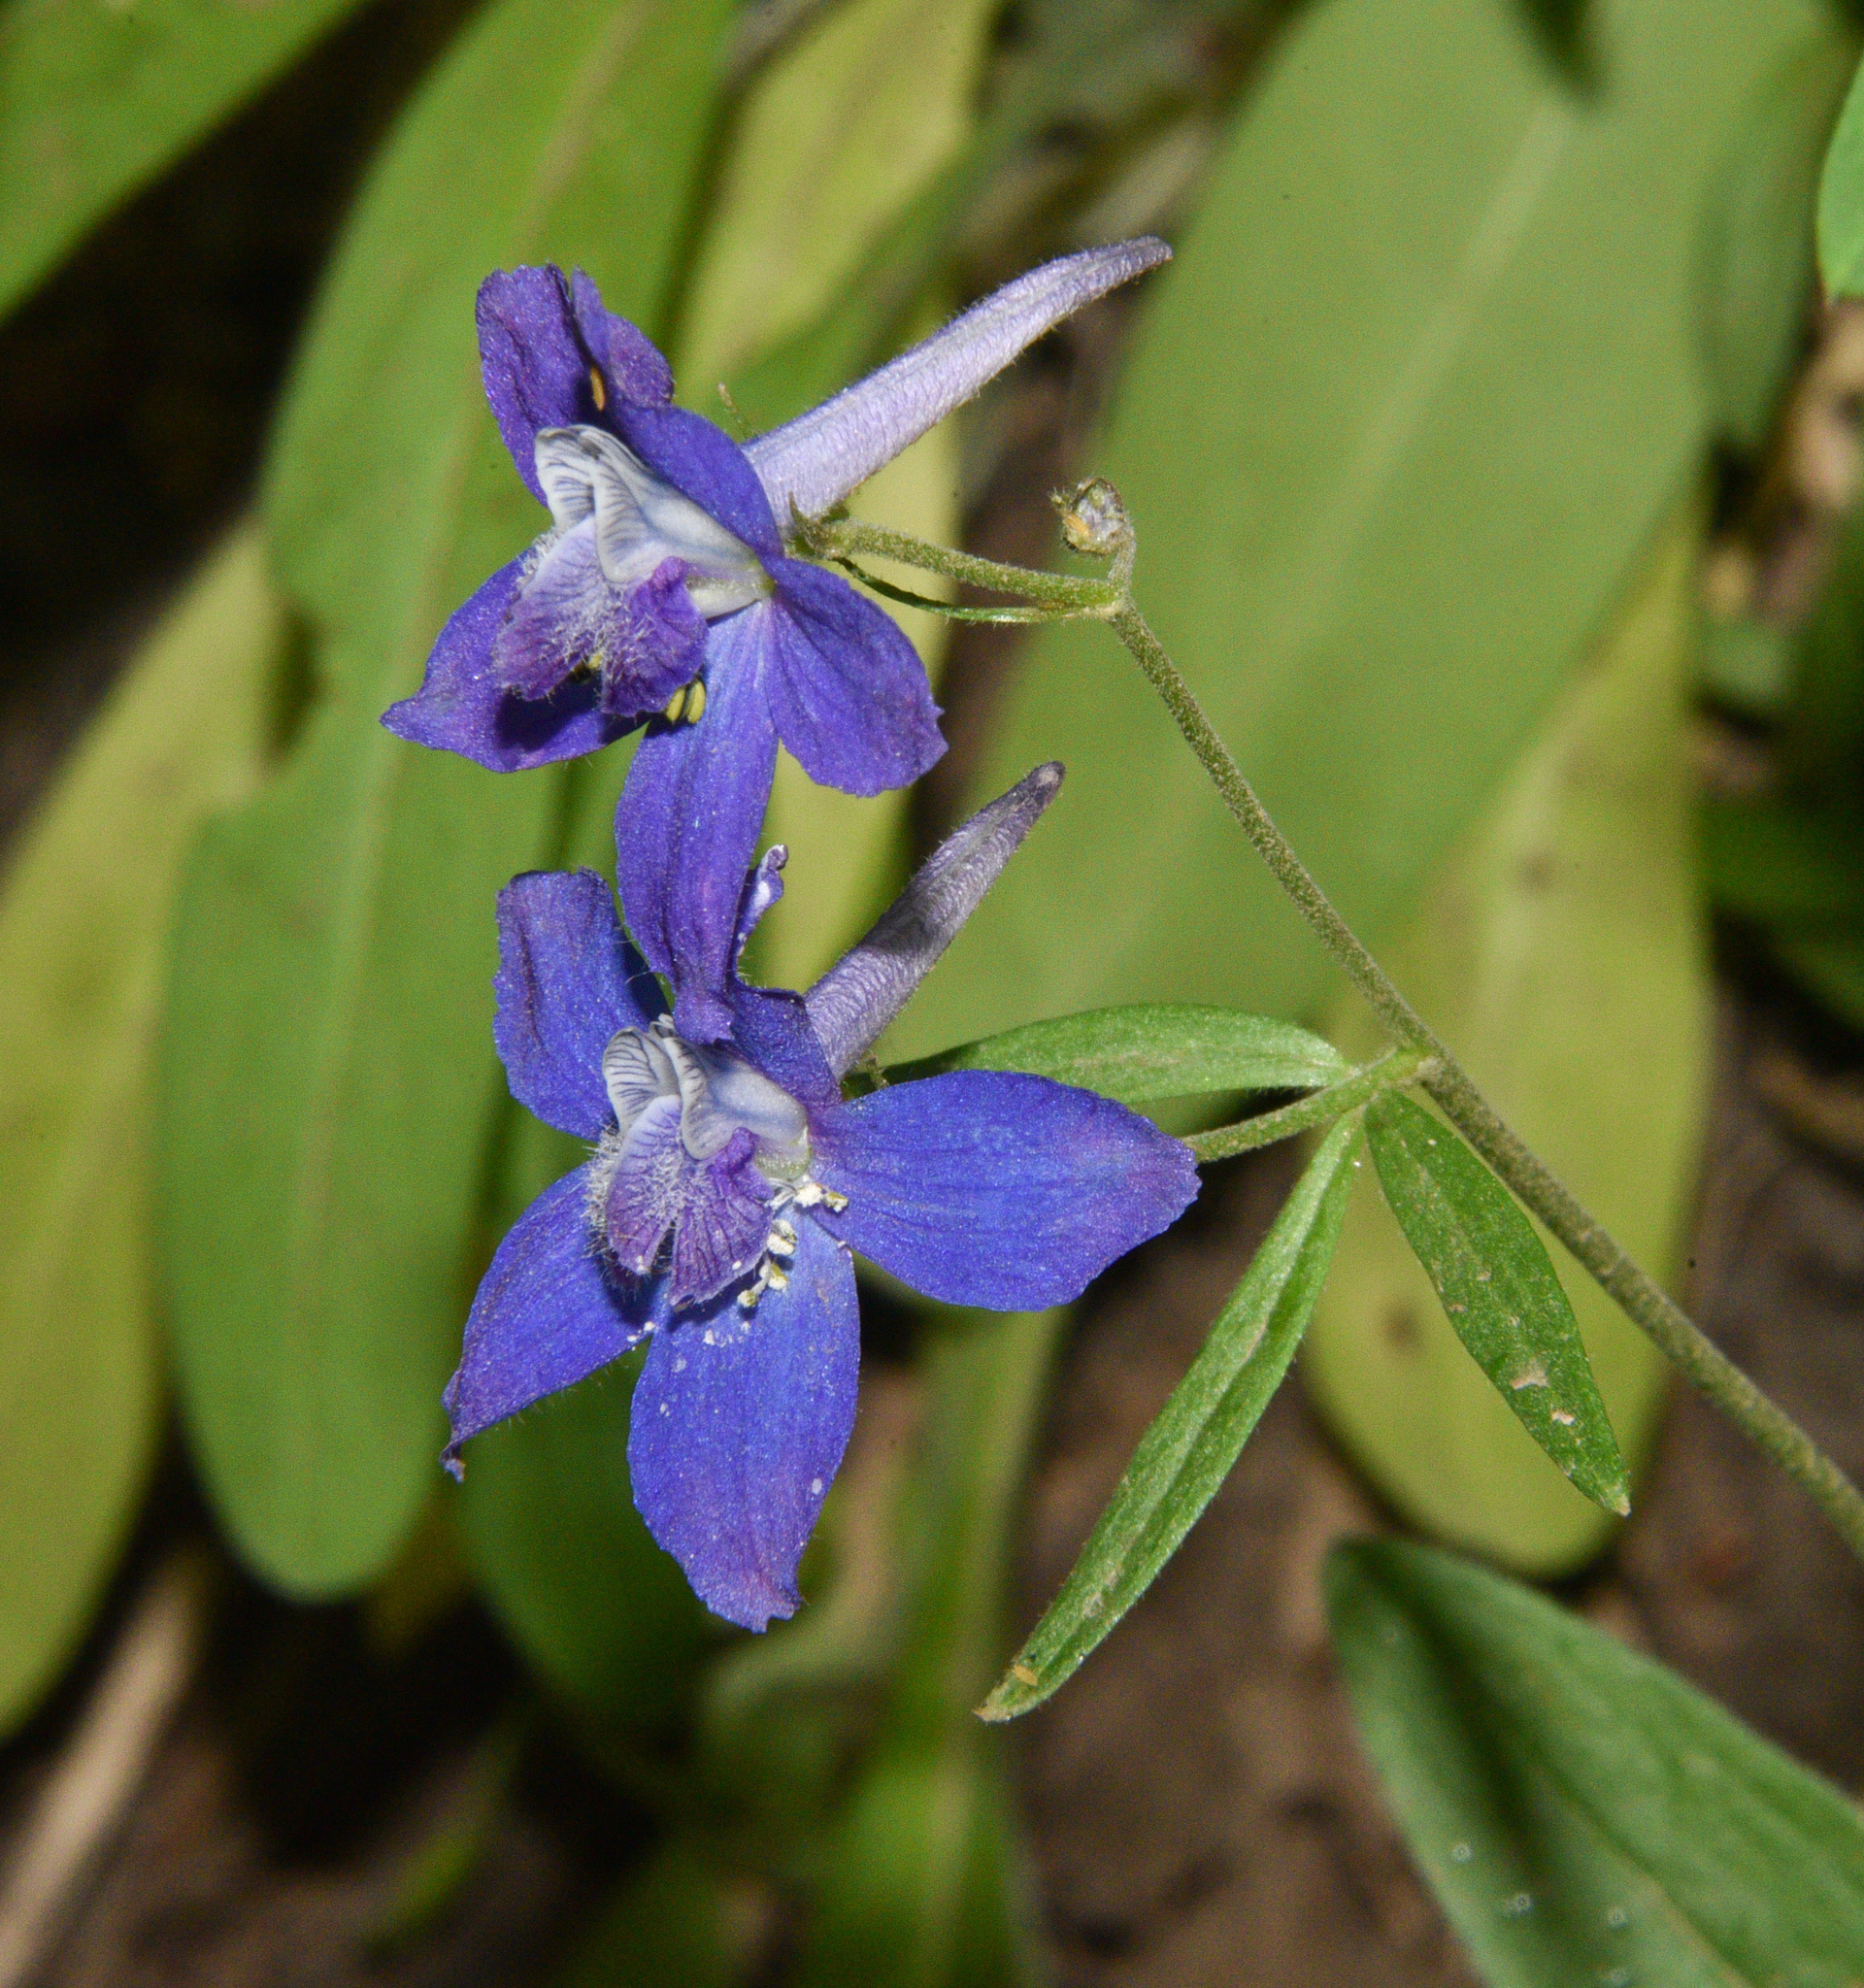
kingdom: Plantae
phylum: Tracheophyta
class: Magnoliopsida
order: Ranunculales
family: Ranunculaceae
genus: Delphinium
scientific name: Delphinium nuttallianum
